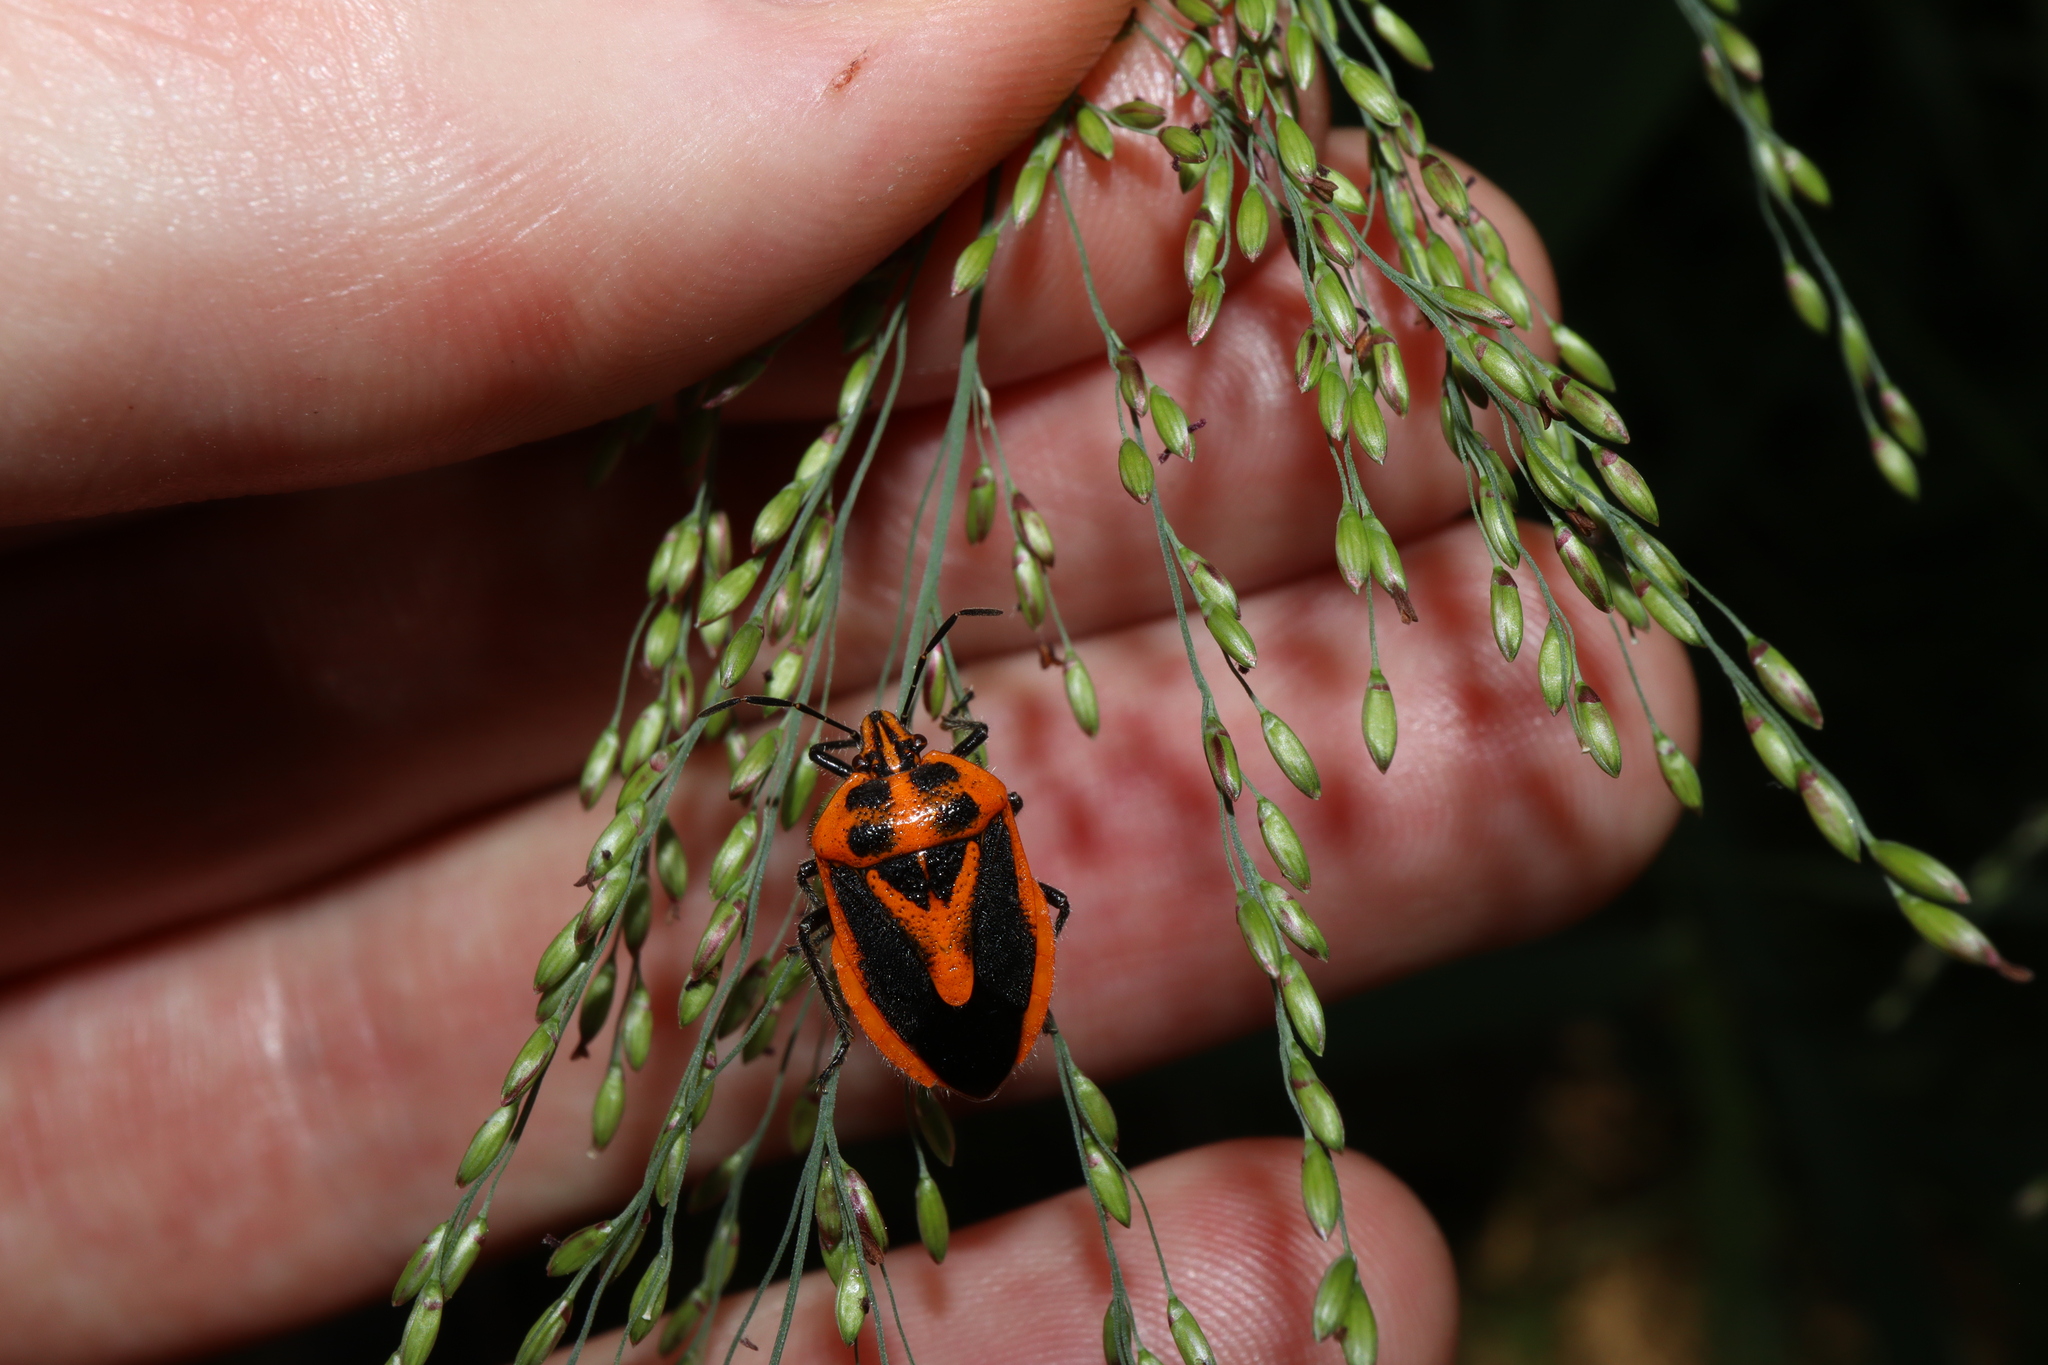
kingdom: Animalia
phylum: Arthropoda
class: Insecta
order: Hemiptera
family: Pentatomidae
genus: Agonoscelis
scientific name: Agonoscelis rutila
